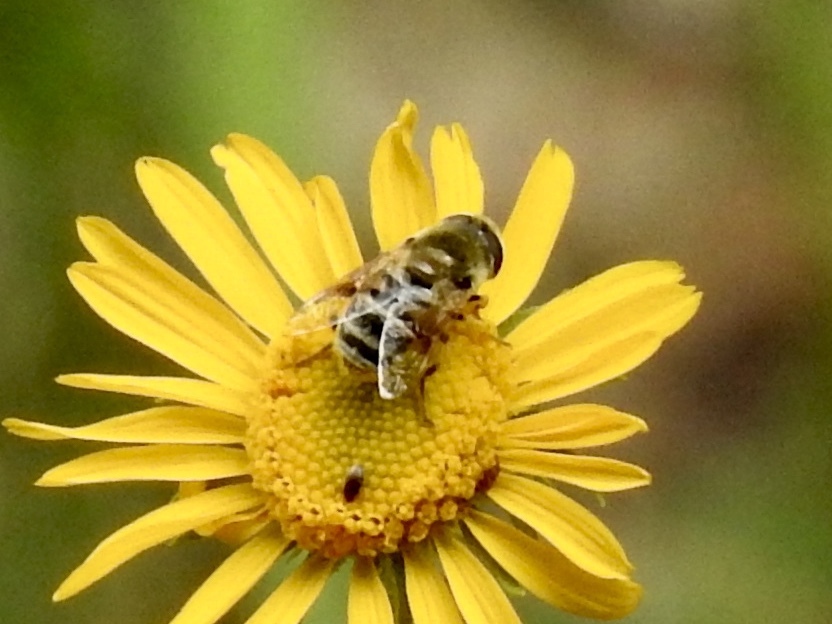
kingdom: Animalia
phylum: Arthropoda
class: Insecta
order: Diptera
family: Syrphidae
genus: Eristalis
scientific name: Eristalis stipator
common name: Yellow-shouldered drone fly
